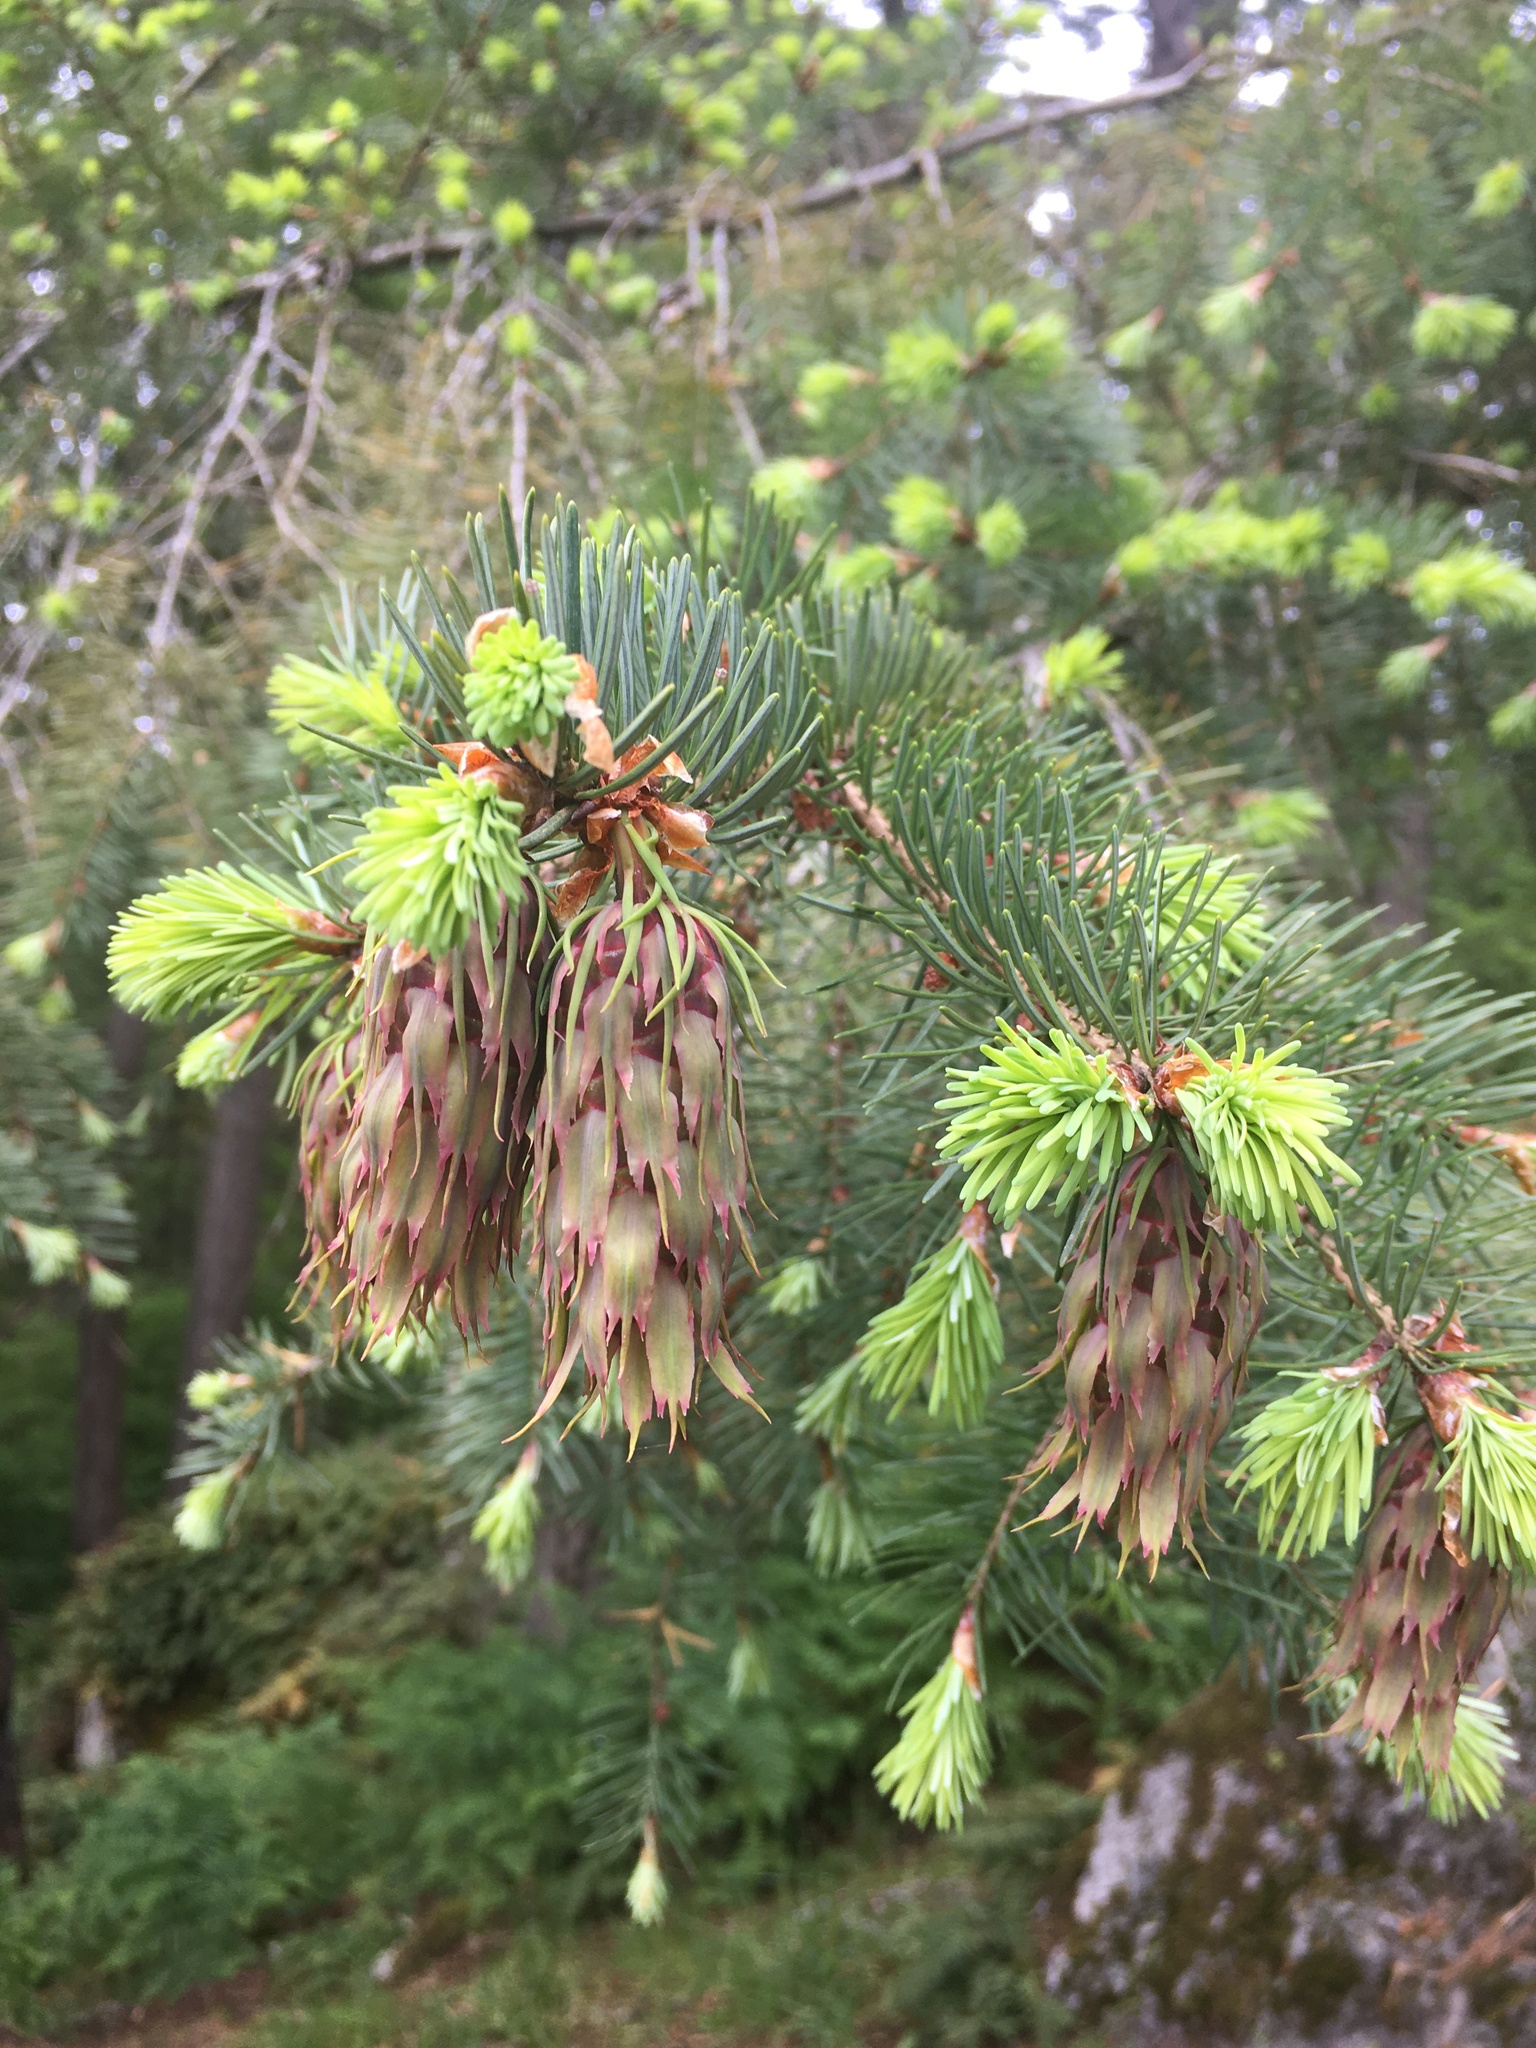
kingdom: Plantae
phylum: Tracheophyta
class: Pinopsida
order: Pinales
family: Pinaceae
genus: Pseudotsuga
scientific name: Pseudotsuga menziesii
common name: Douglas fir
